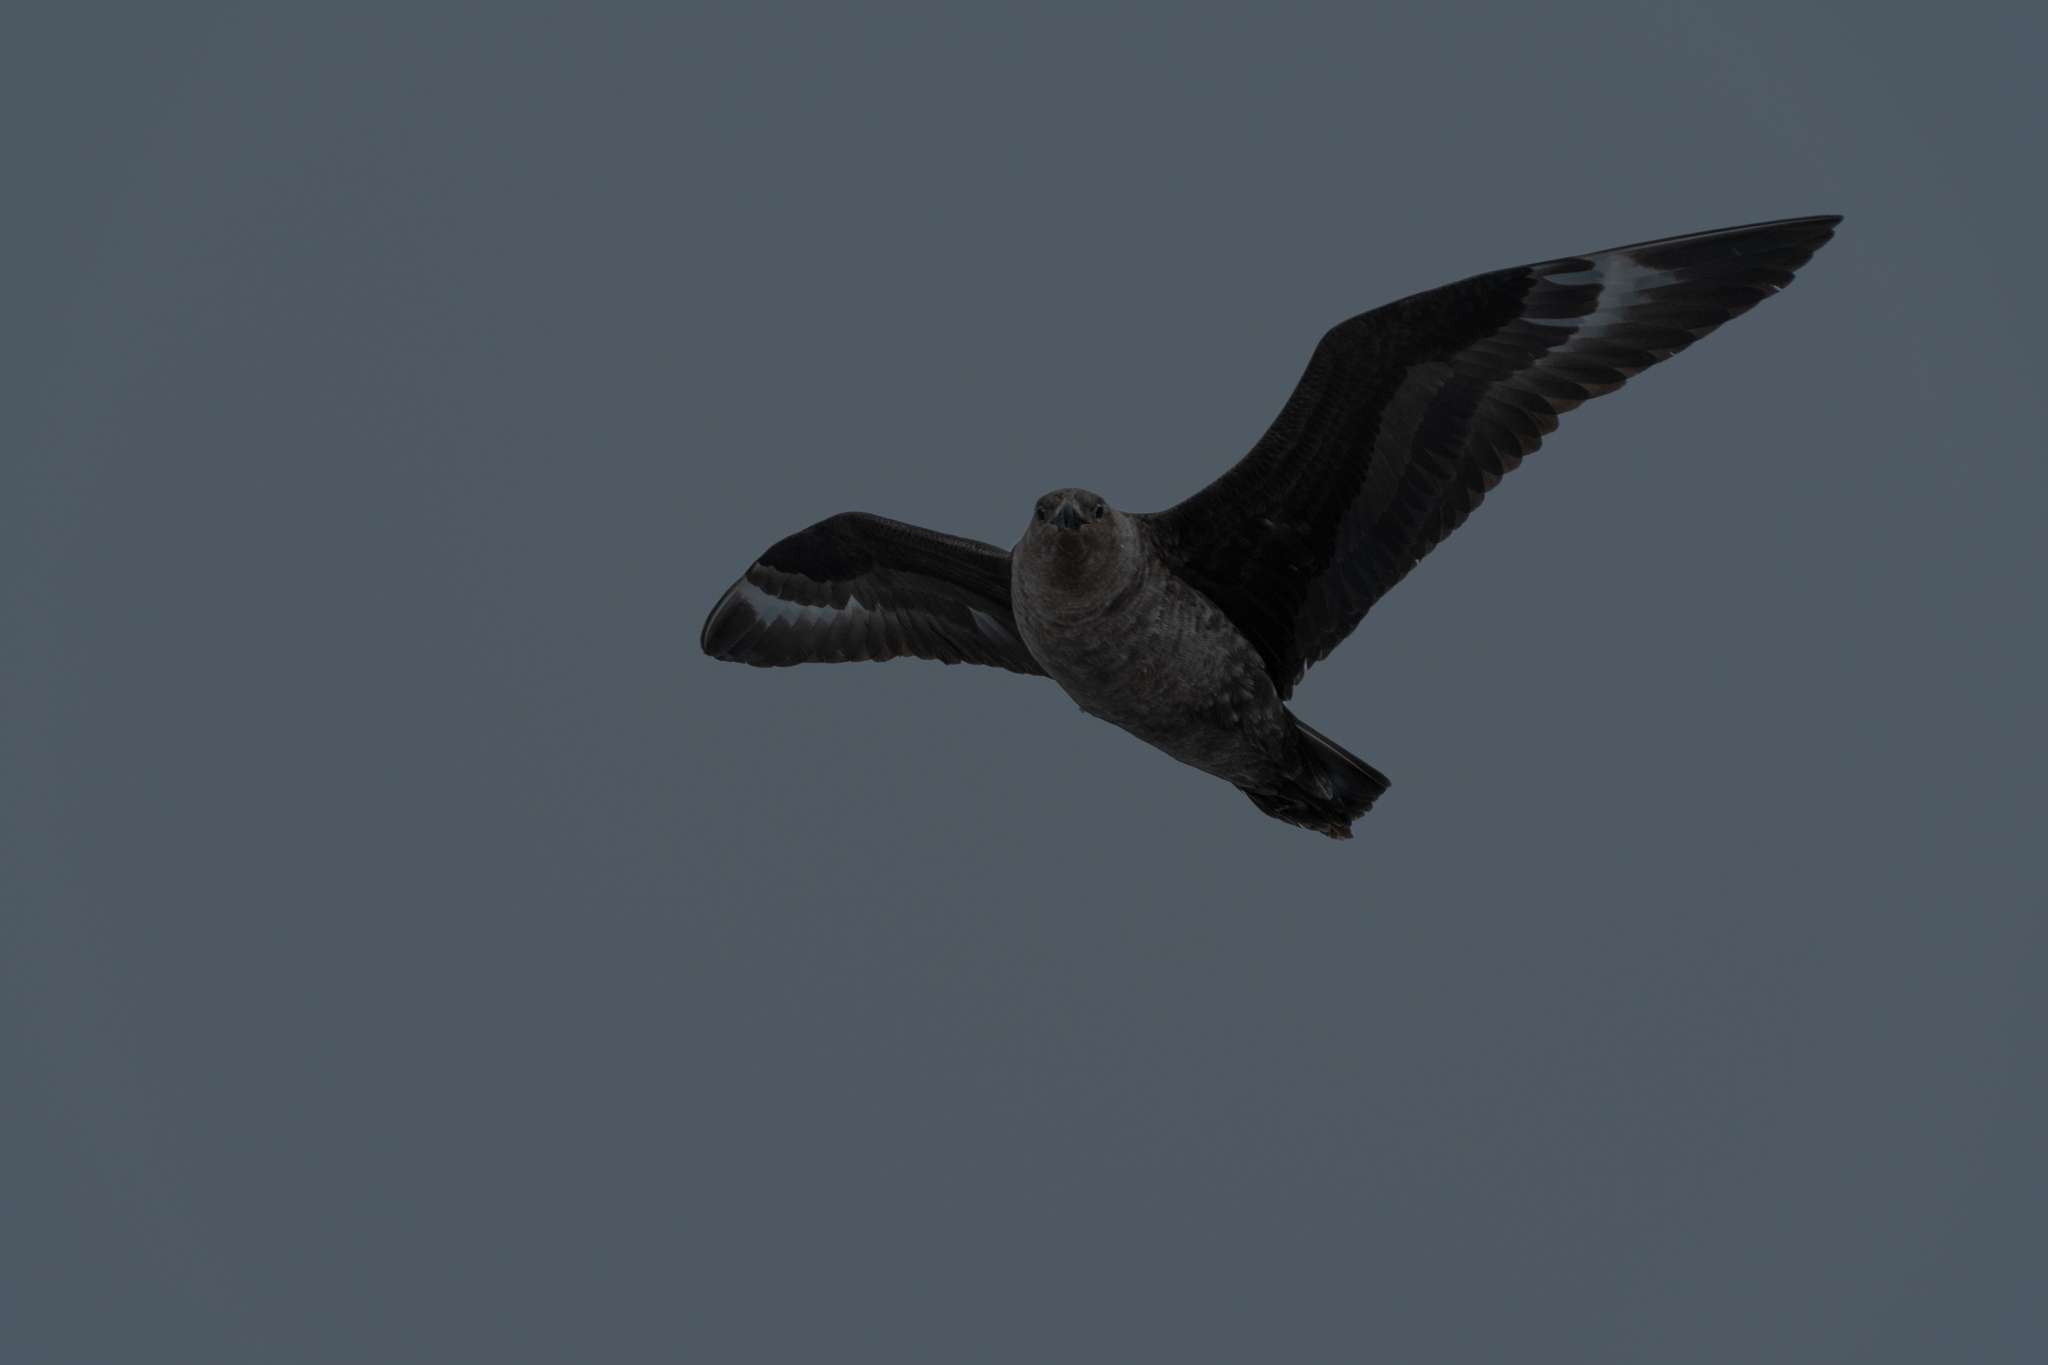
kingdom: Animalia
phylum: Chordata
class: Aves
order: Charadriiformes
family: Stercorariidae
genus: Stercorarius
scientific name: Stercorarius maccormicki
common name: South polar skua
